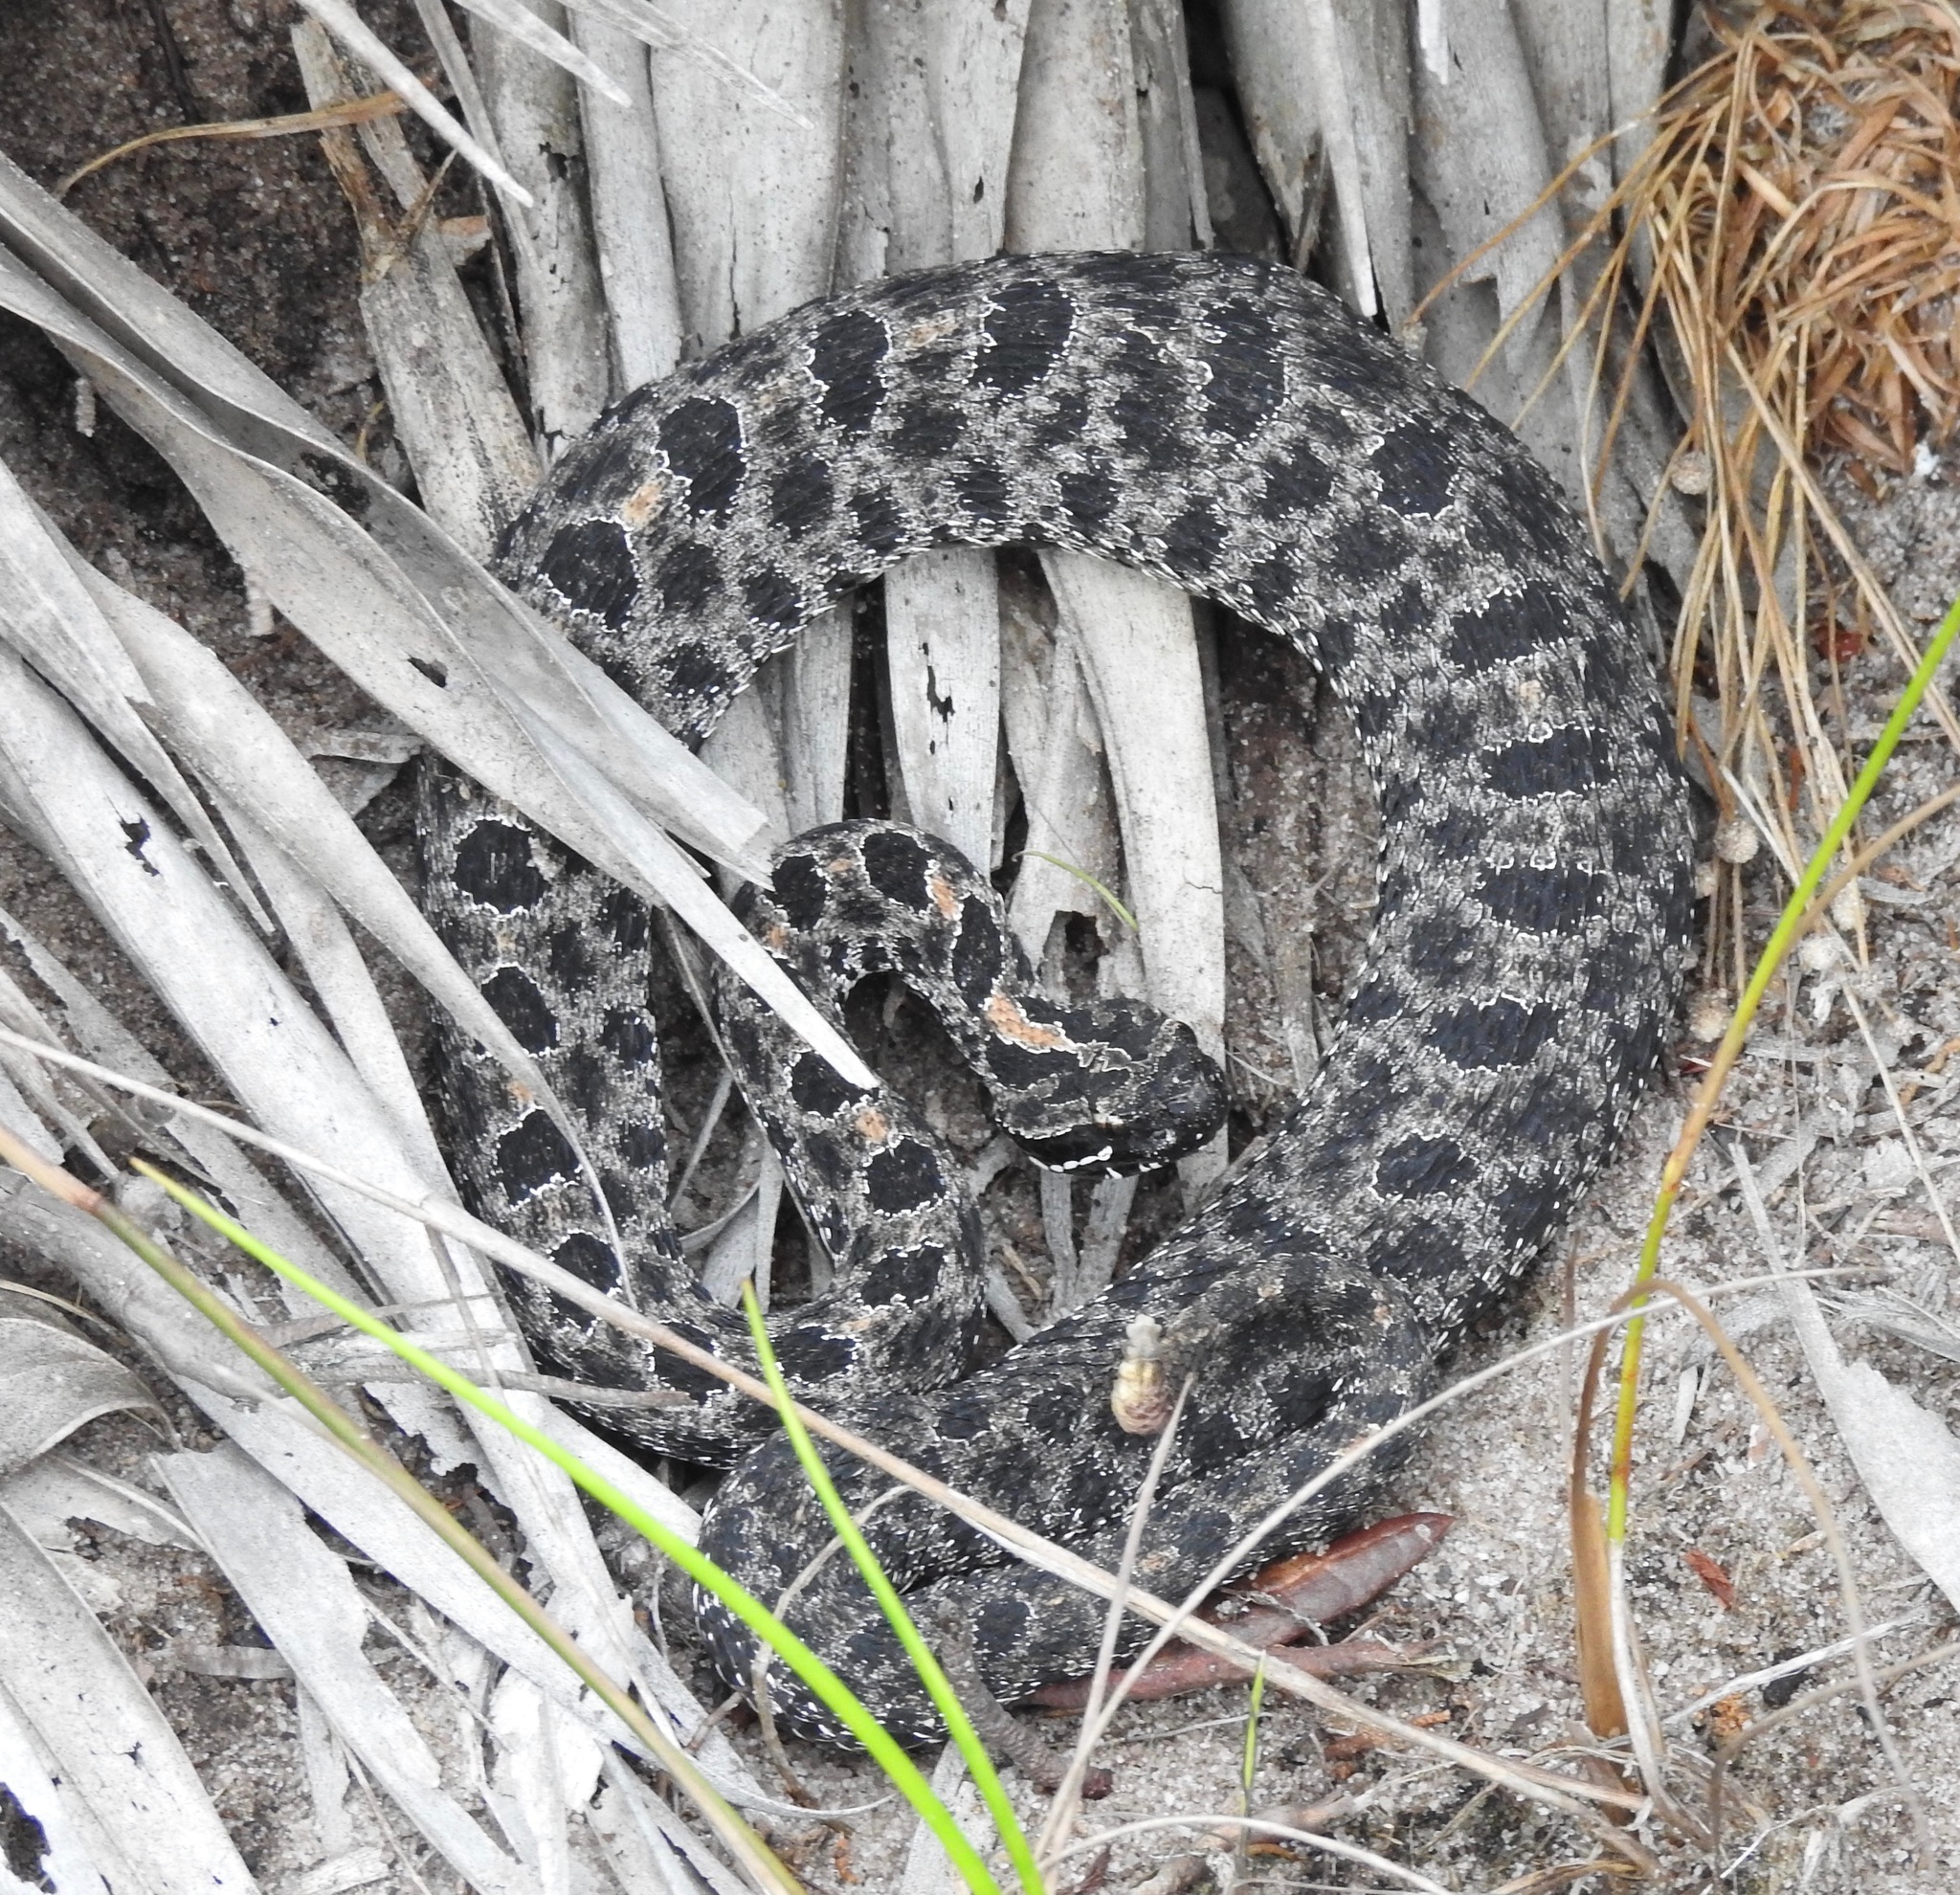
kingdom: Animalia
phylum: Chordata
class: Squamata
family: Viperidae
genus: Sistrurus
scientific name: Sistrurus miliarius
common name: Pygmy rattlesnake
